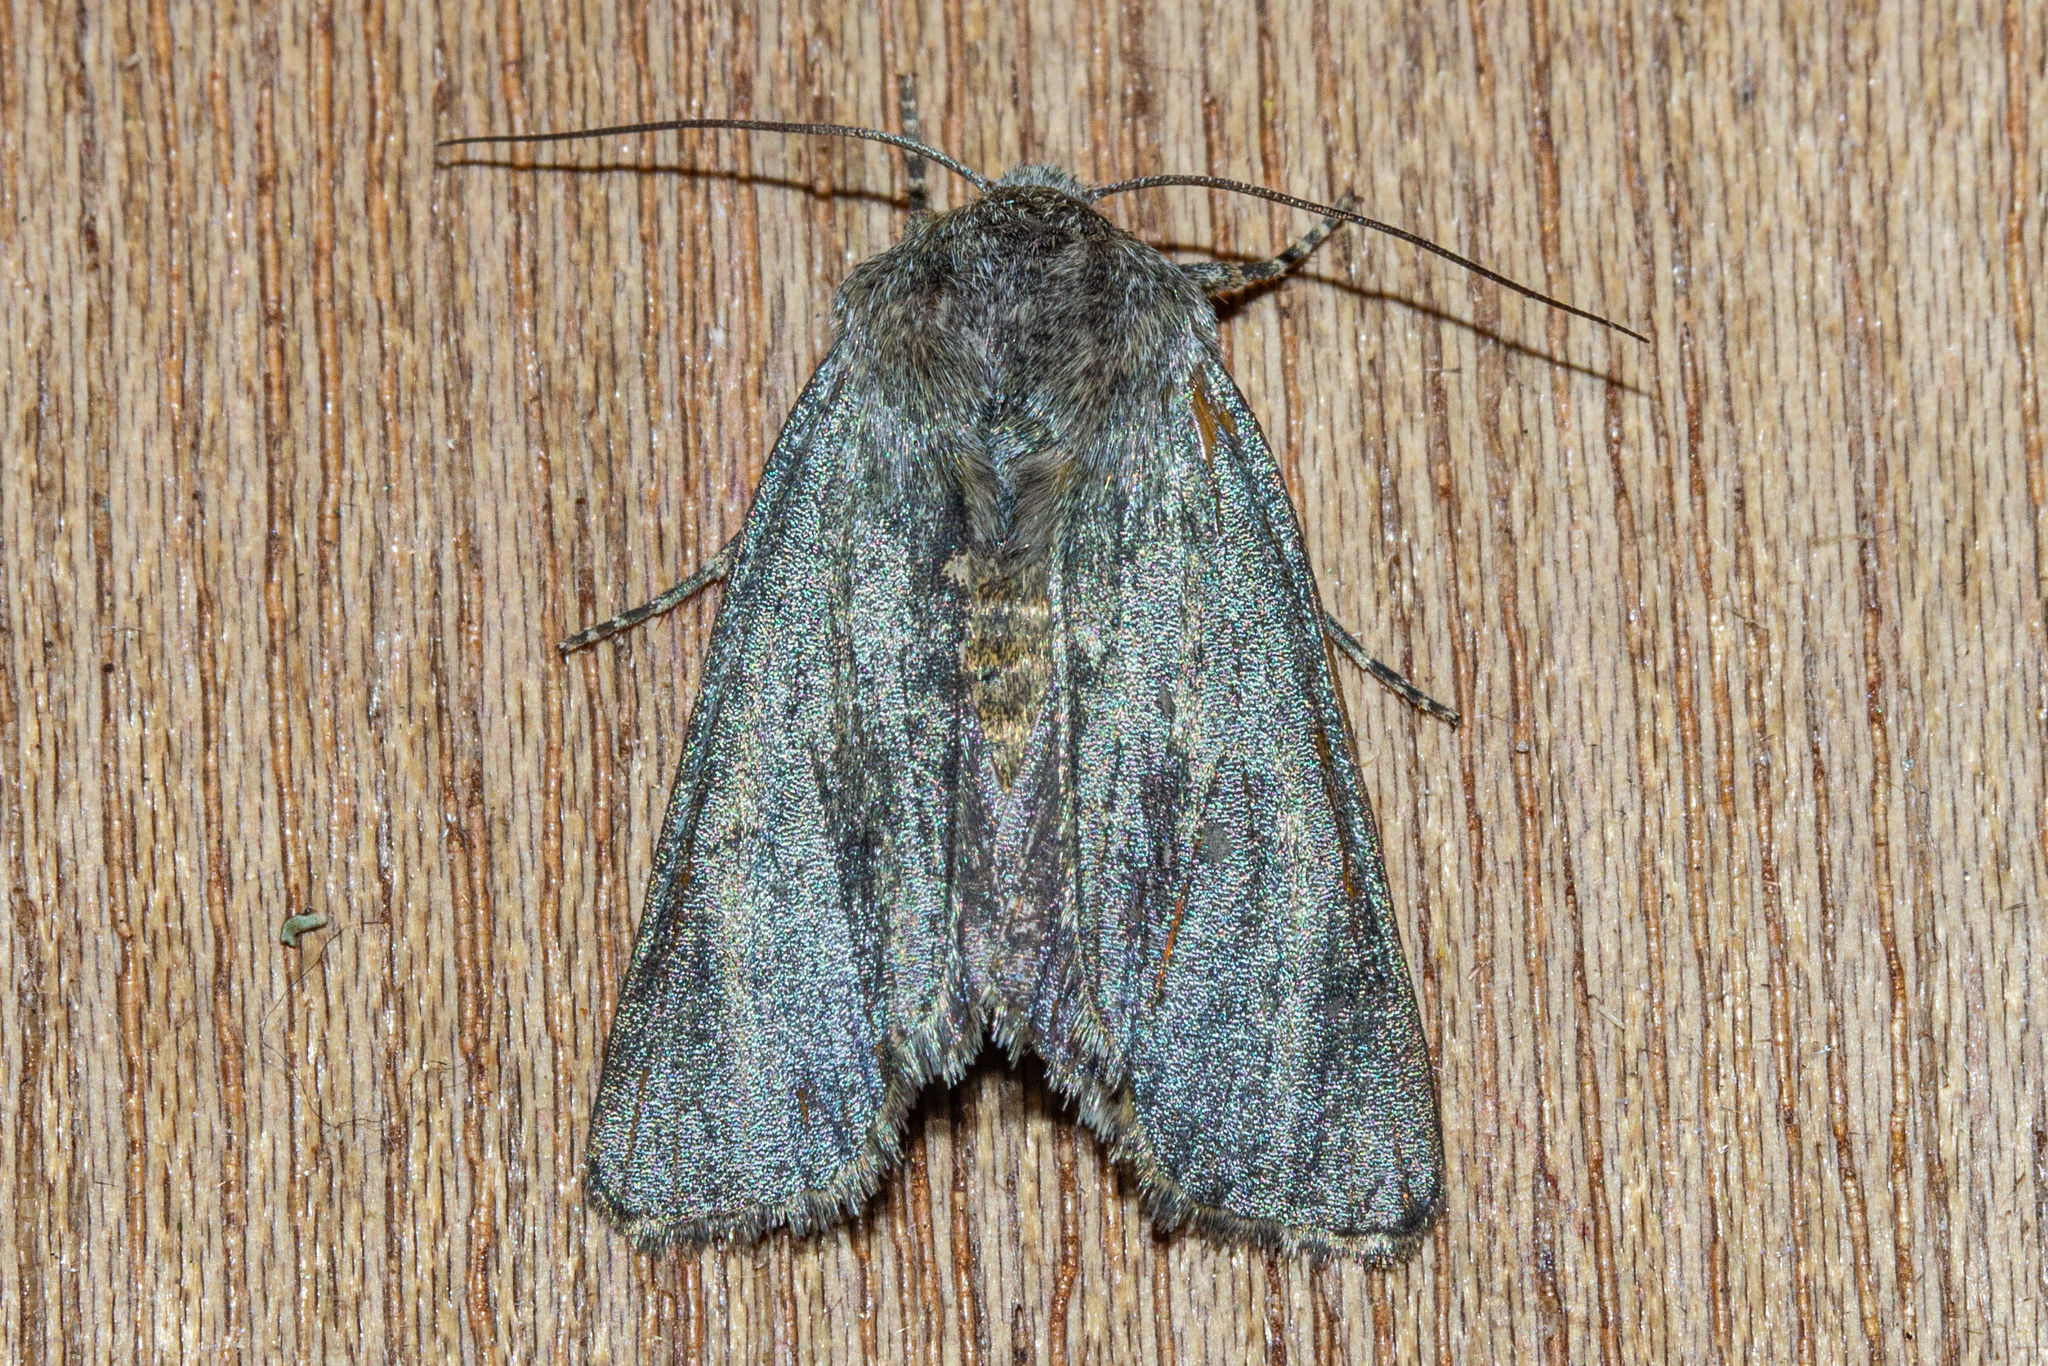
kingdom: Animalia
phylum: Arthropoda
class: Insecta
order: Lepidoptera
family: Noctuidae
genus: Physetica
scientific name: Physetica caerulea
